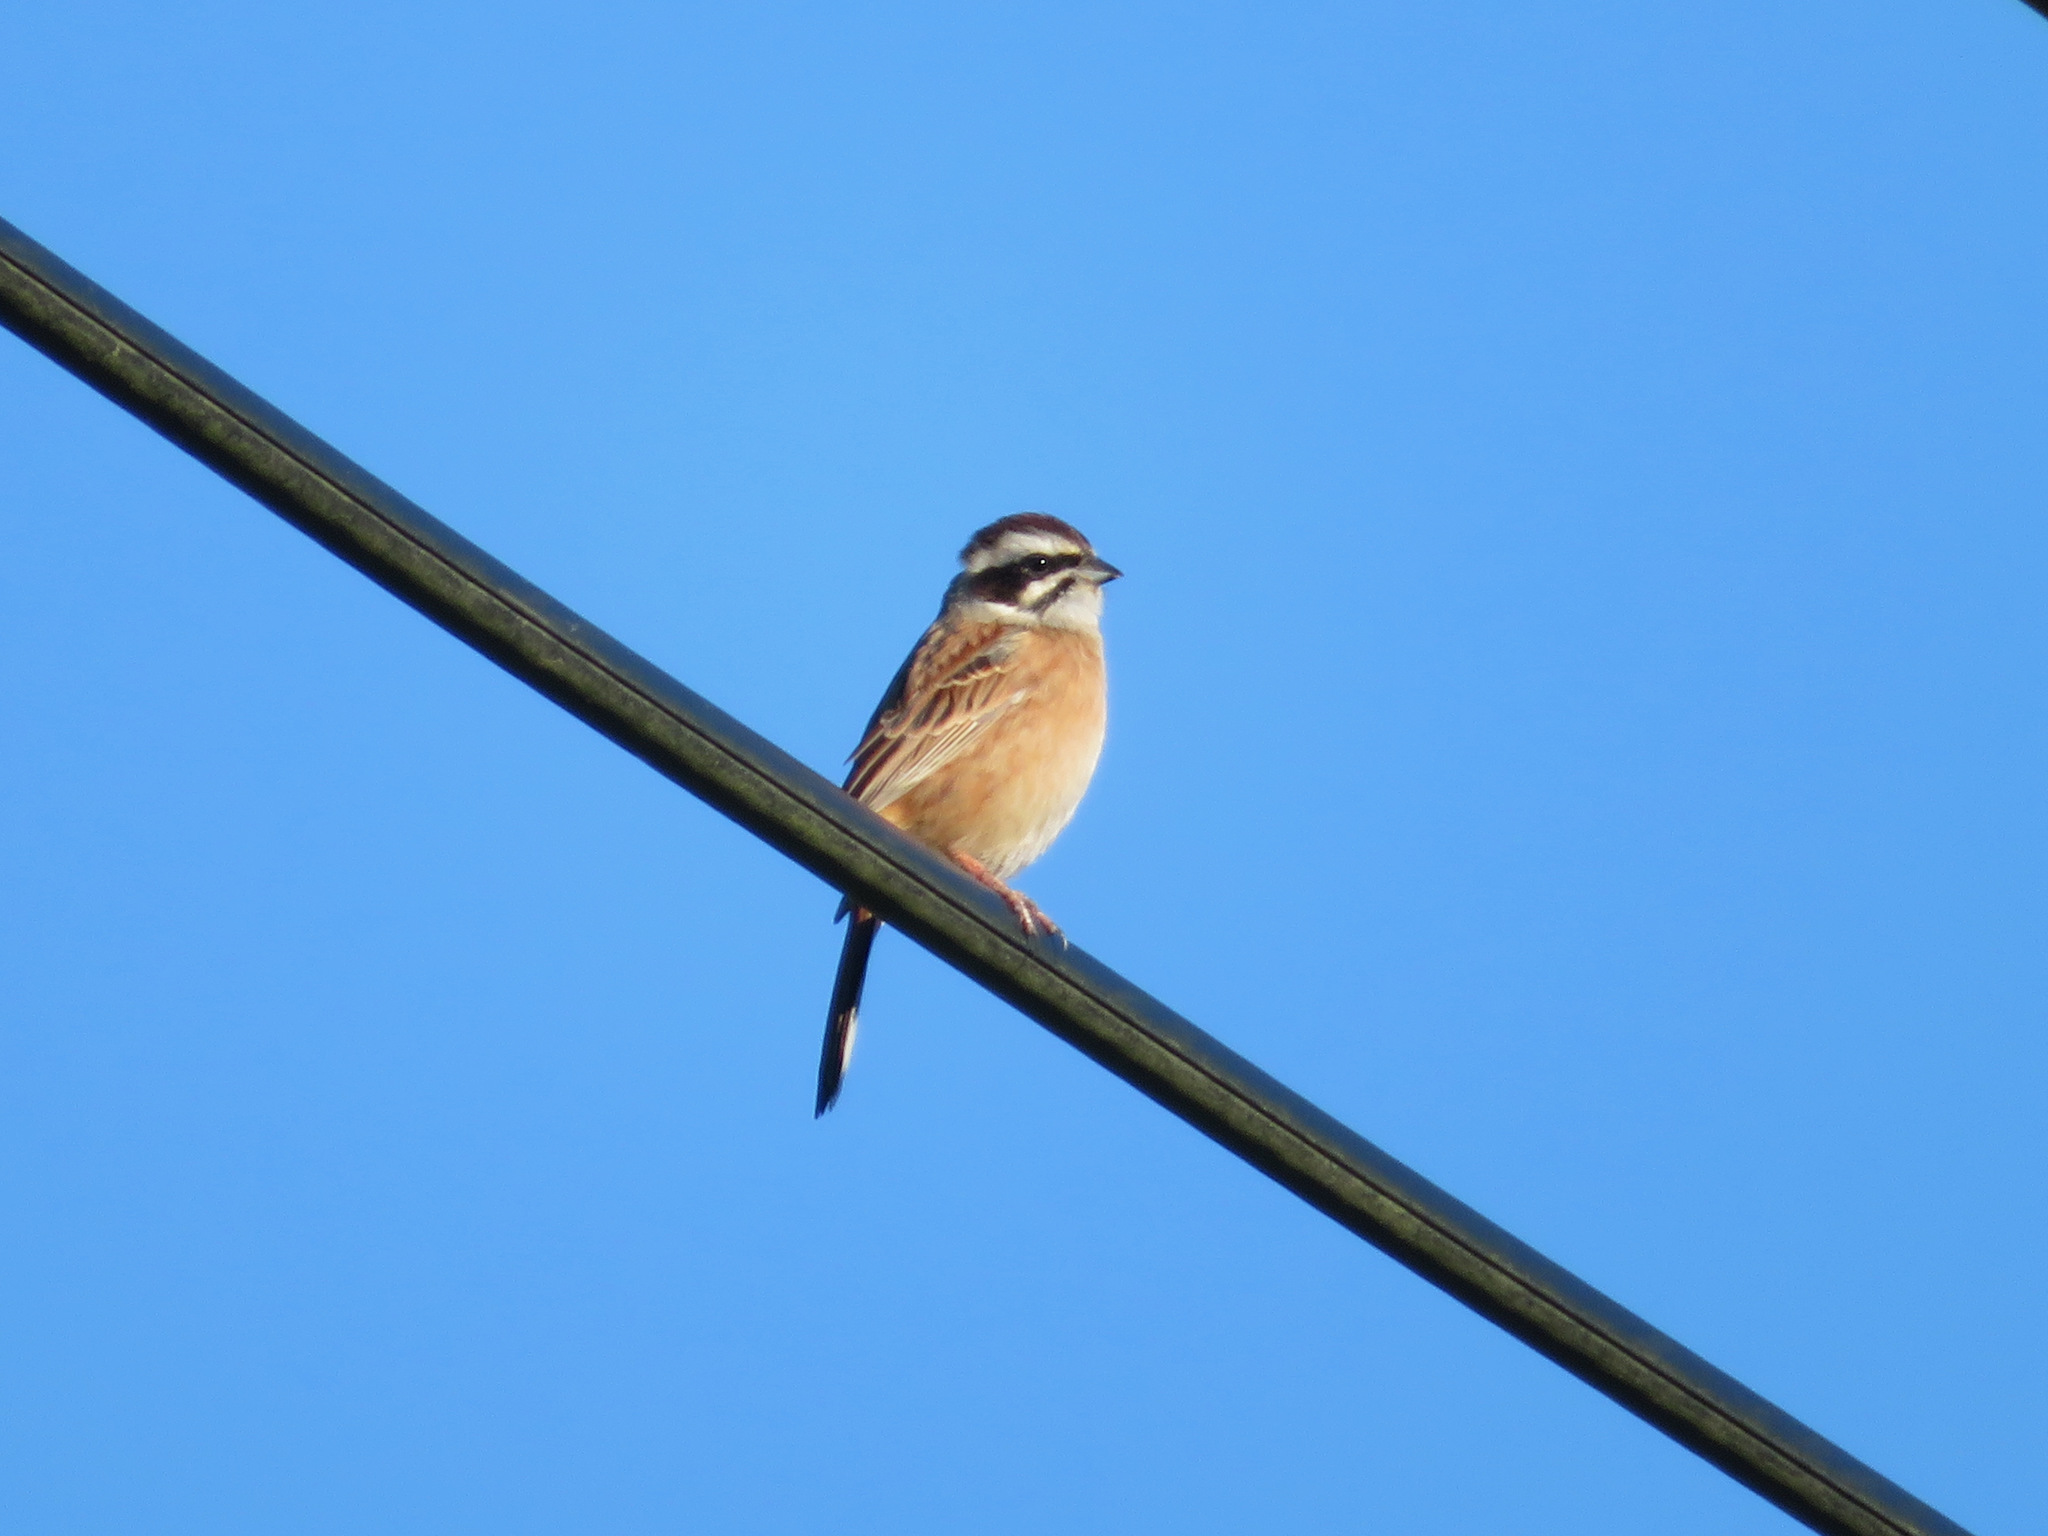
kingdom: Animalia
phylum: Chordata
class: Aves
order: Passeriformes
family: Emberizidae
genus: Emberiza
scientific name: Emberiza cioides
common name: Meadow bunting
